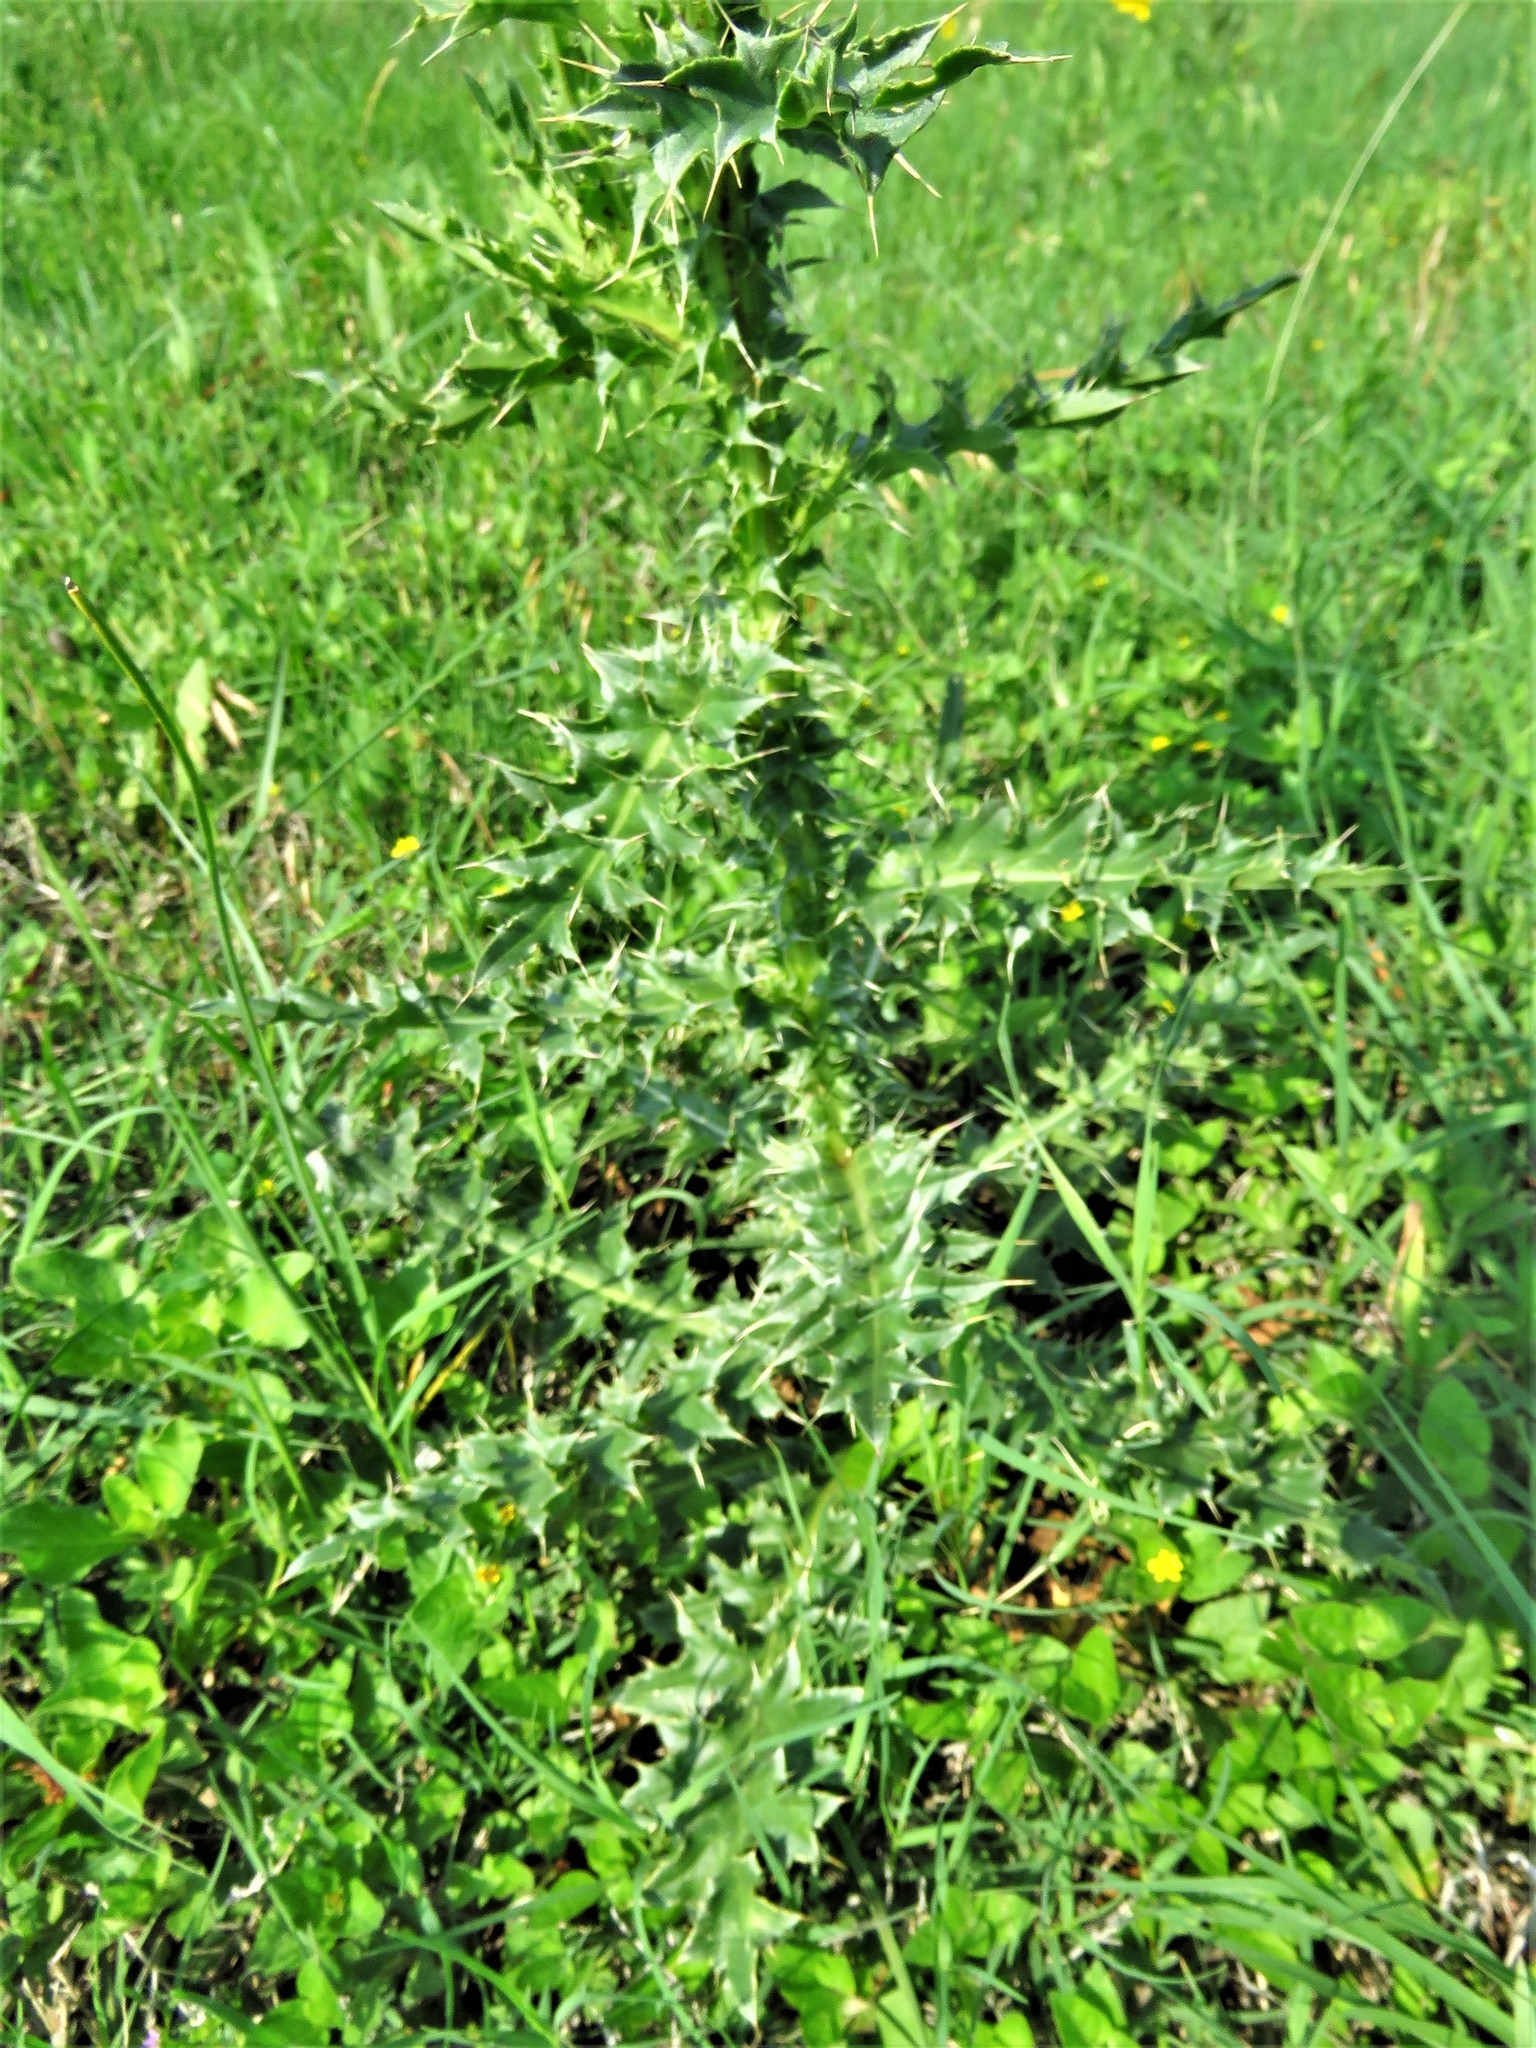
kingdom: Plantae
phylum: Tracheophyta
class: Magnoliopsida
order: Asterales
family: Asteraceae
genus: Carduus
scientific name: Carduus nutans
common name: Musk thistle
